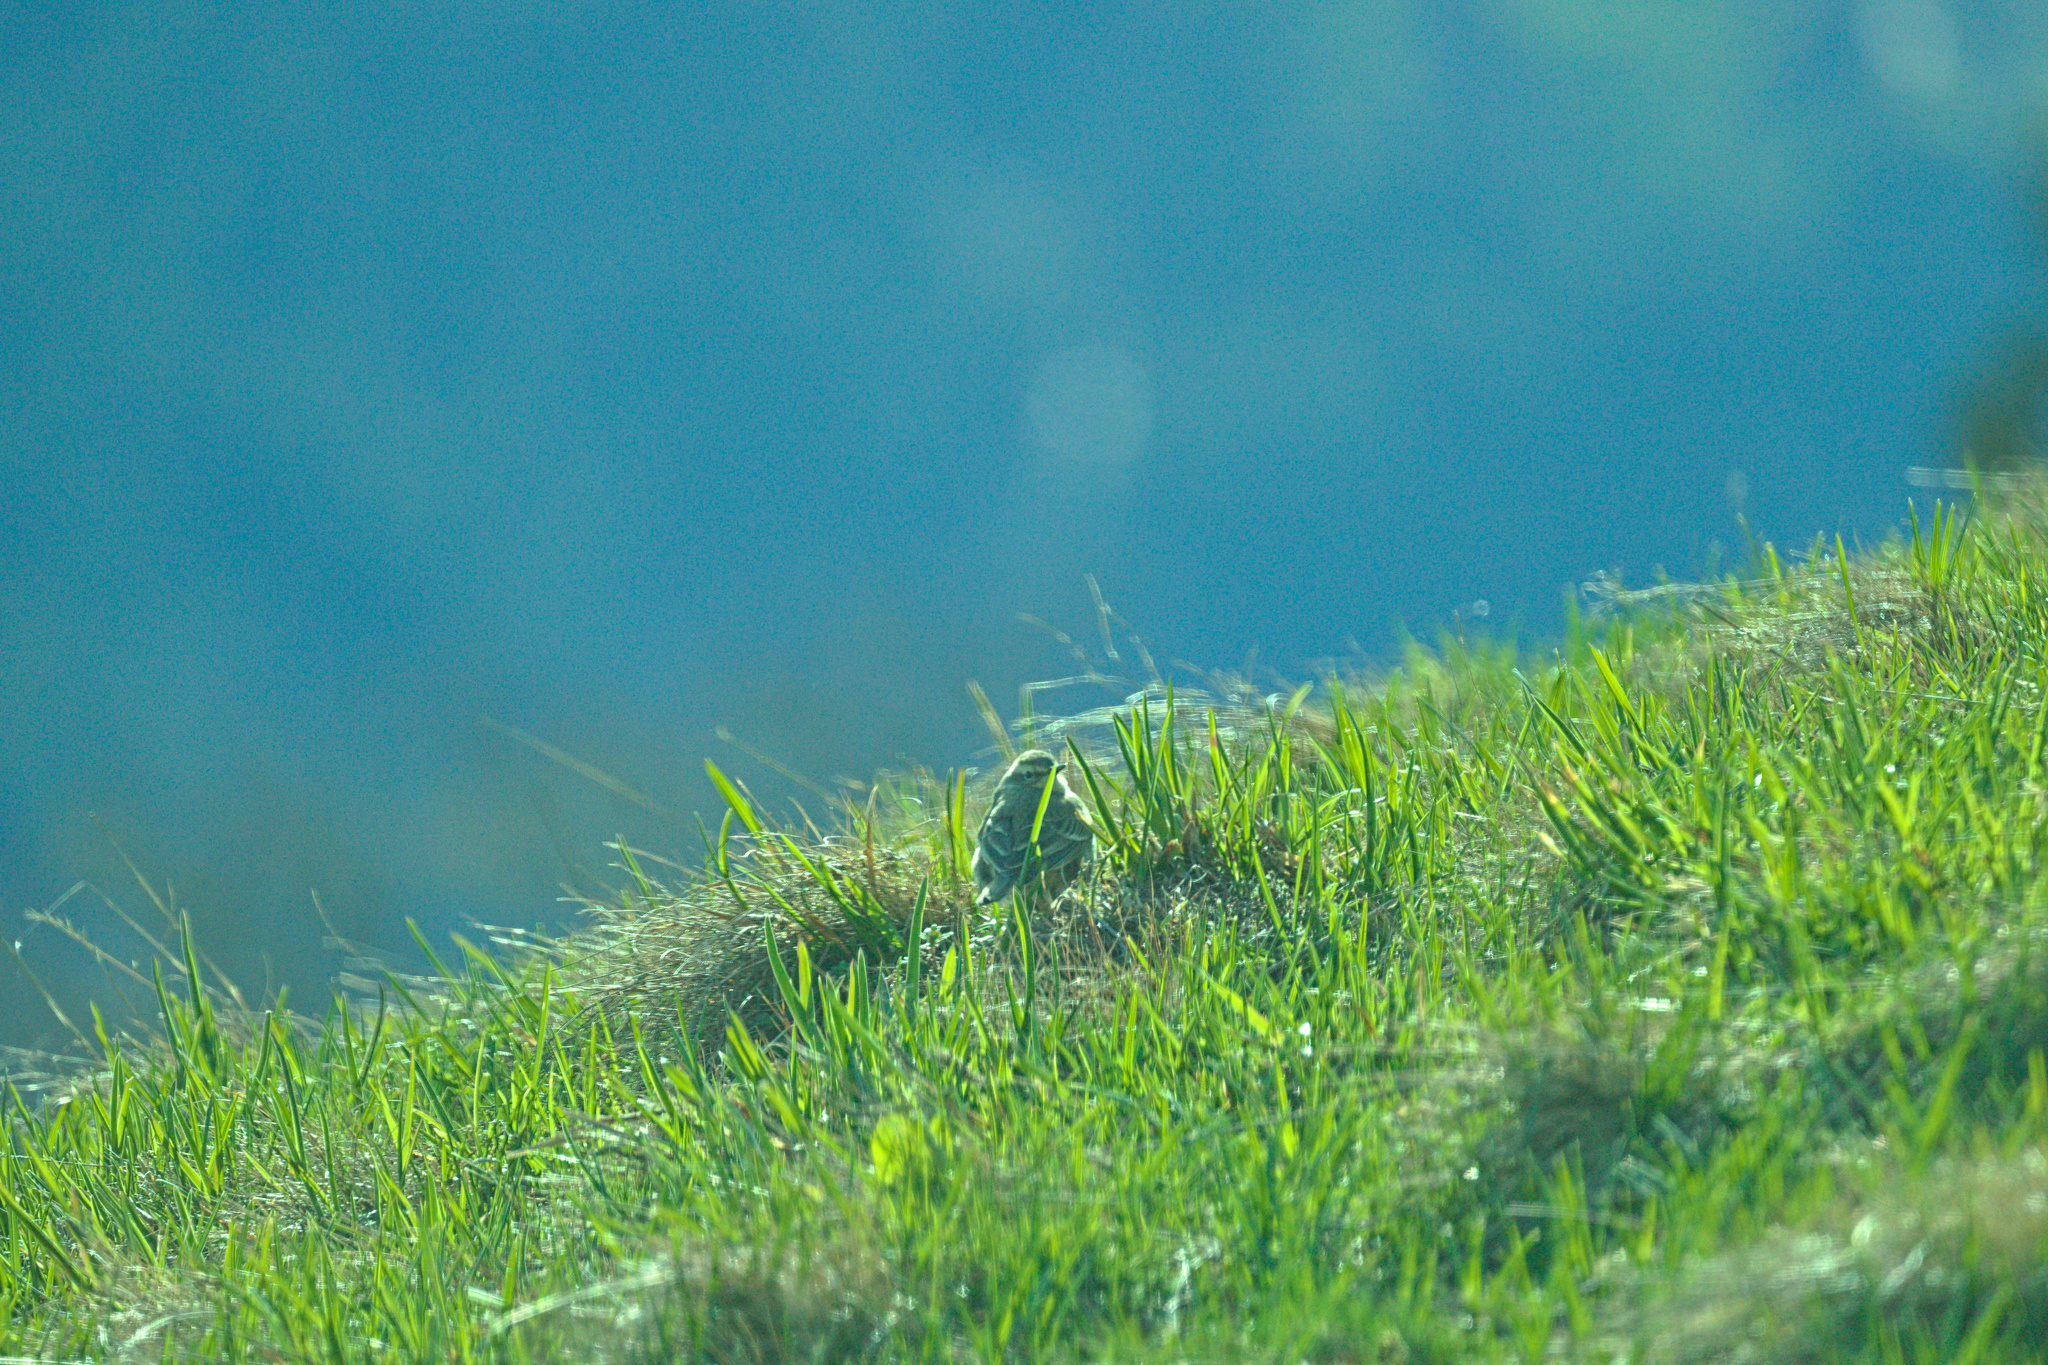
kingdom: Animalia
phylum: Chordata
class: Aves
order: Passeriformes
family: Motacillidae
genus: Anthus
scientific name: Anthus spinoletta
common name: Water pipit
